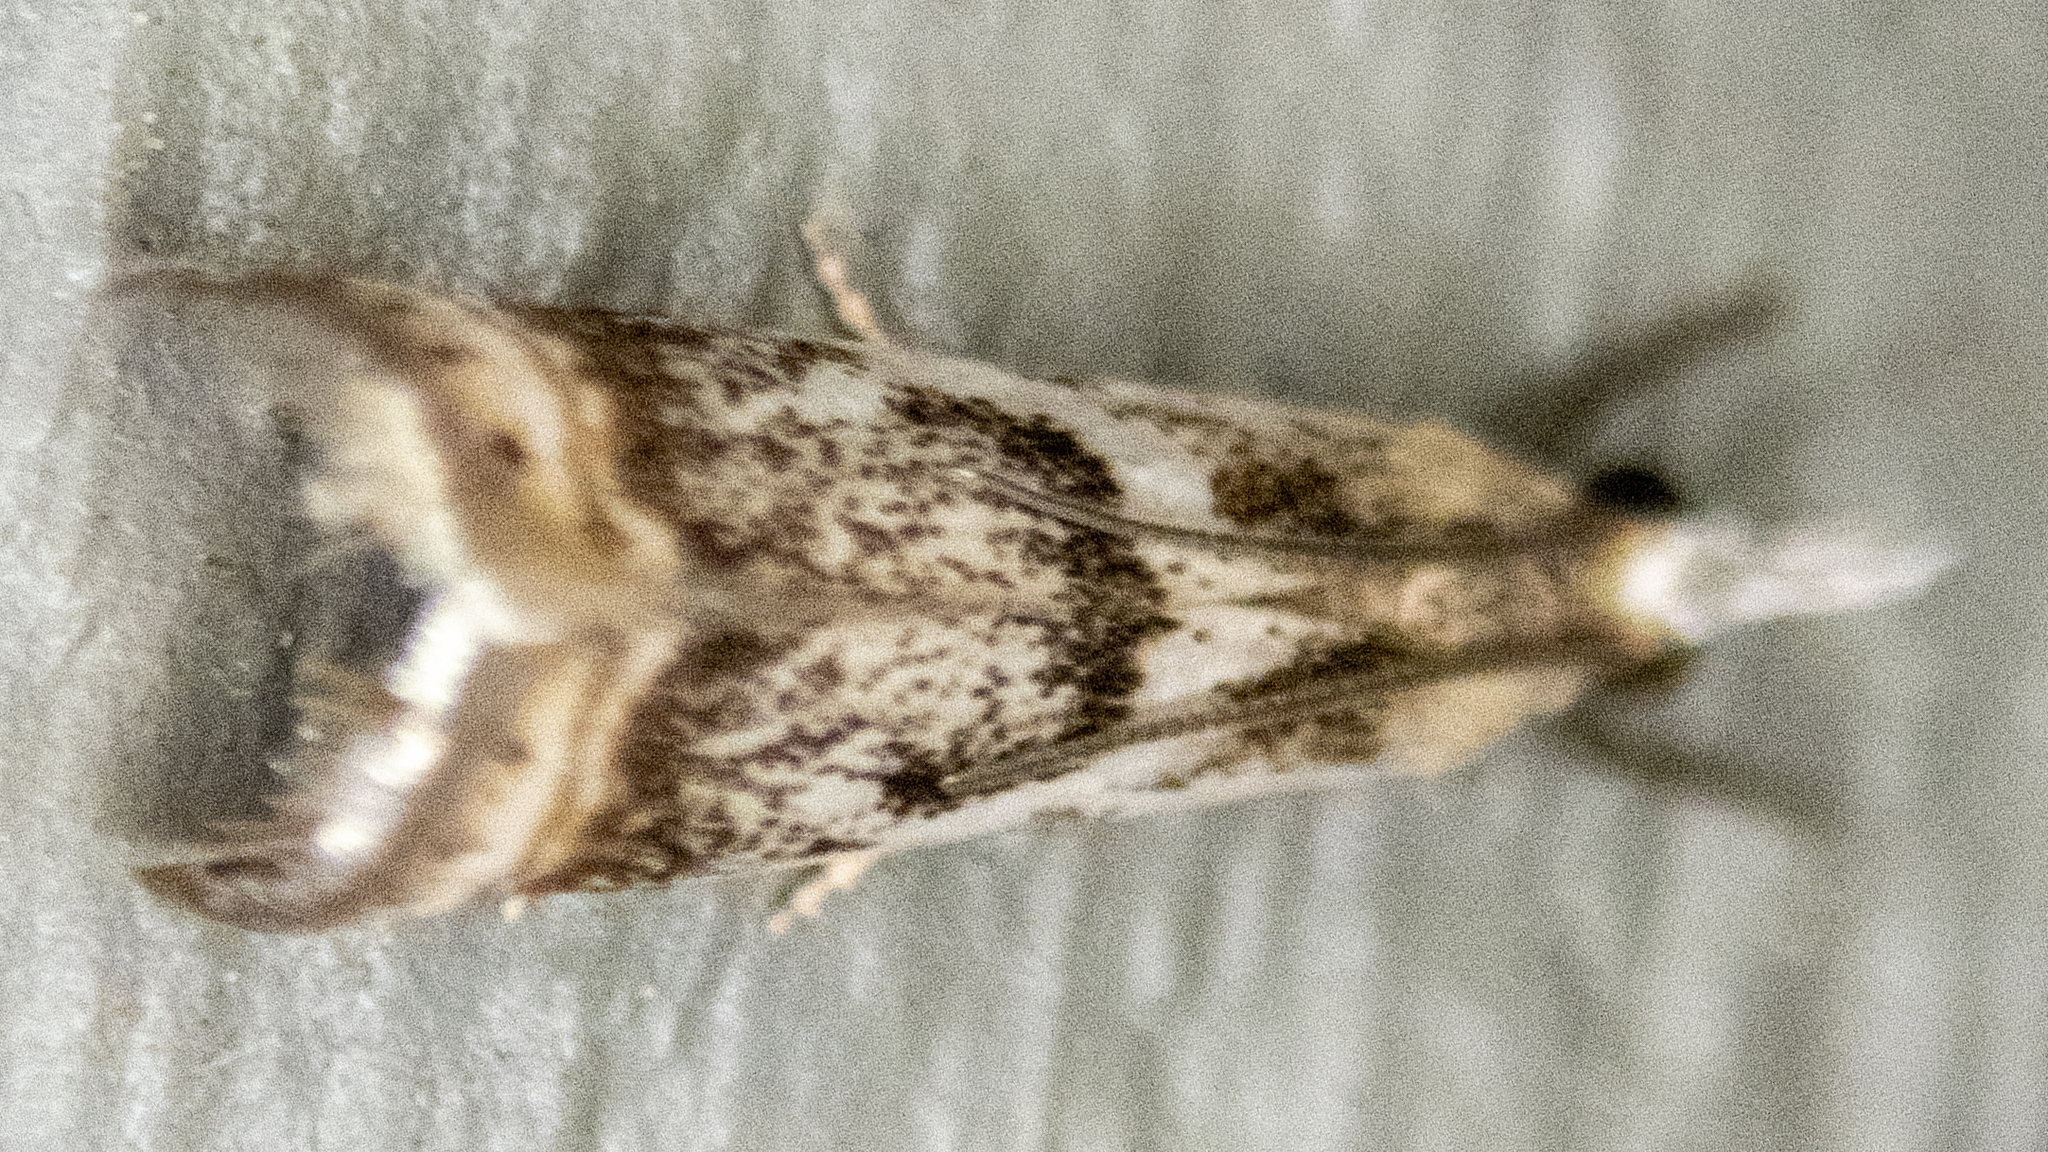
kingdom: Animalia
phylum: Arthropoda
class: Insecta
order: Lepidoptera
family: Crambidae
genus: Microcrambus
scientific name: Microcrambus elegans
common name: Elegant grass-veneer
